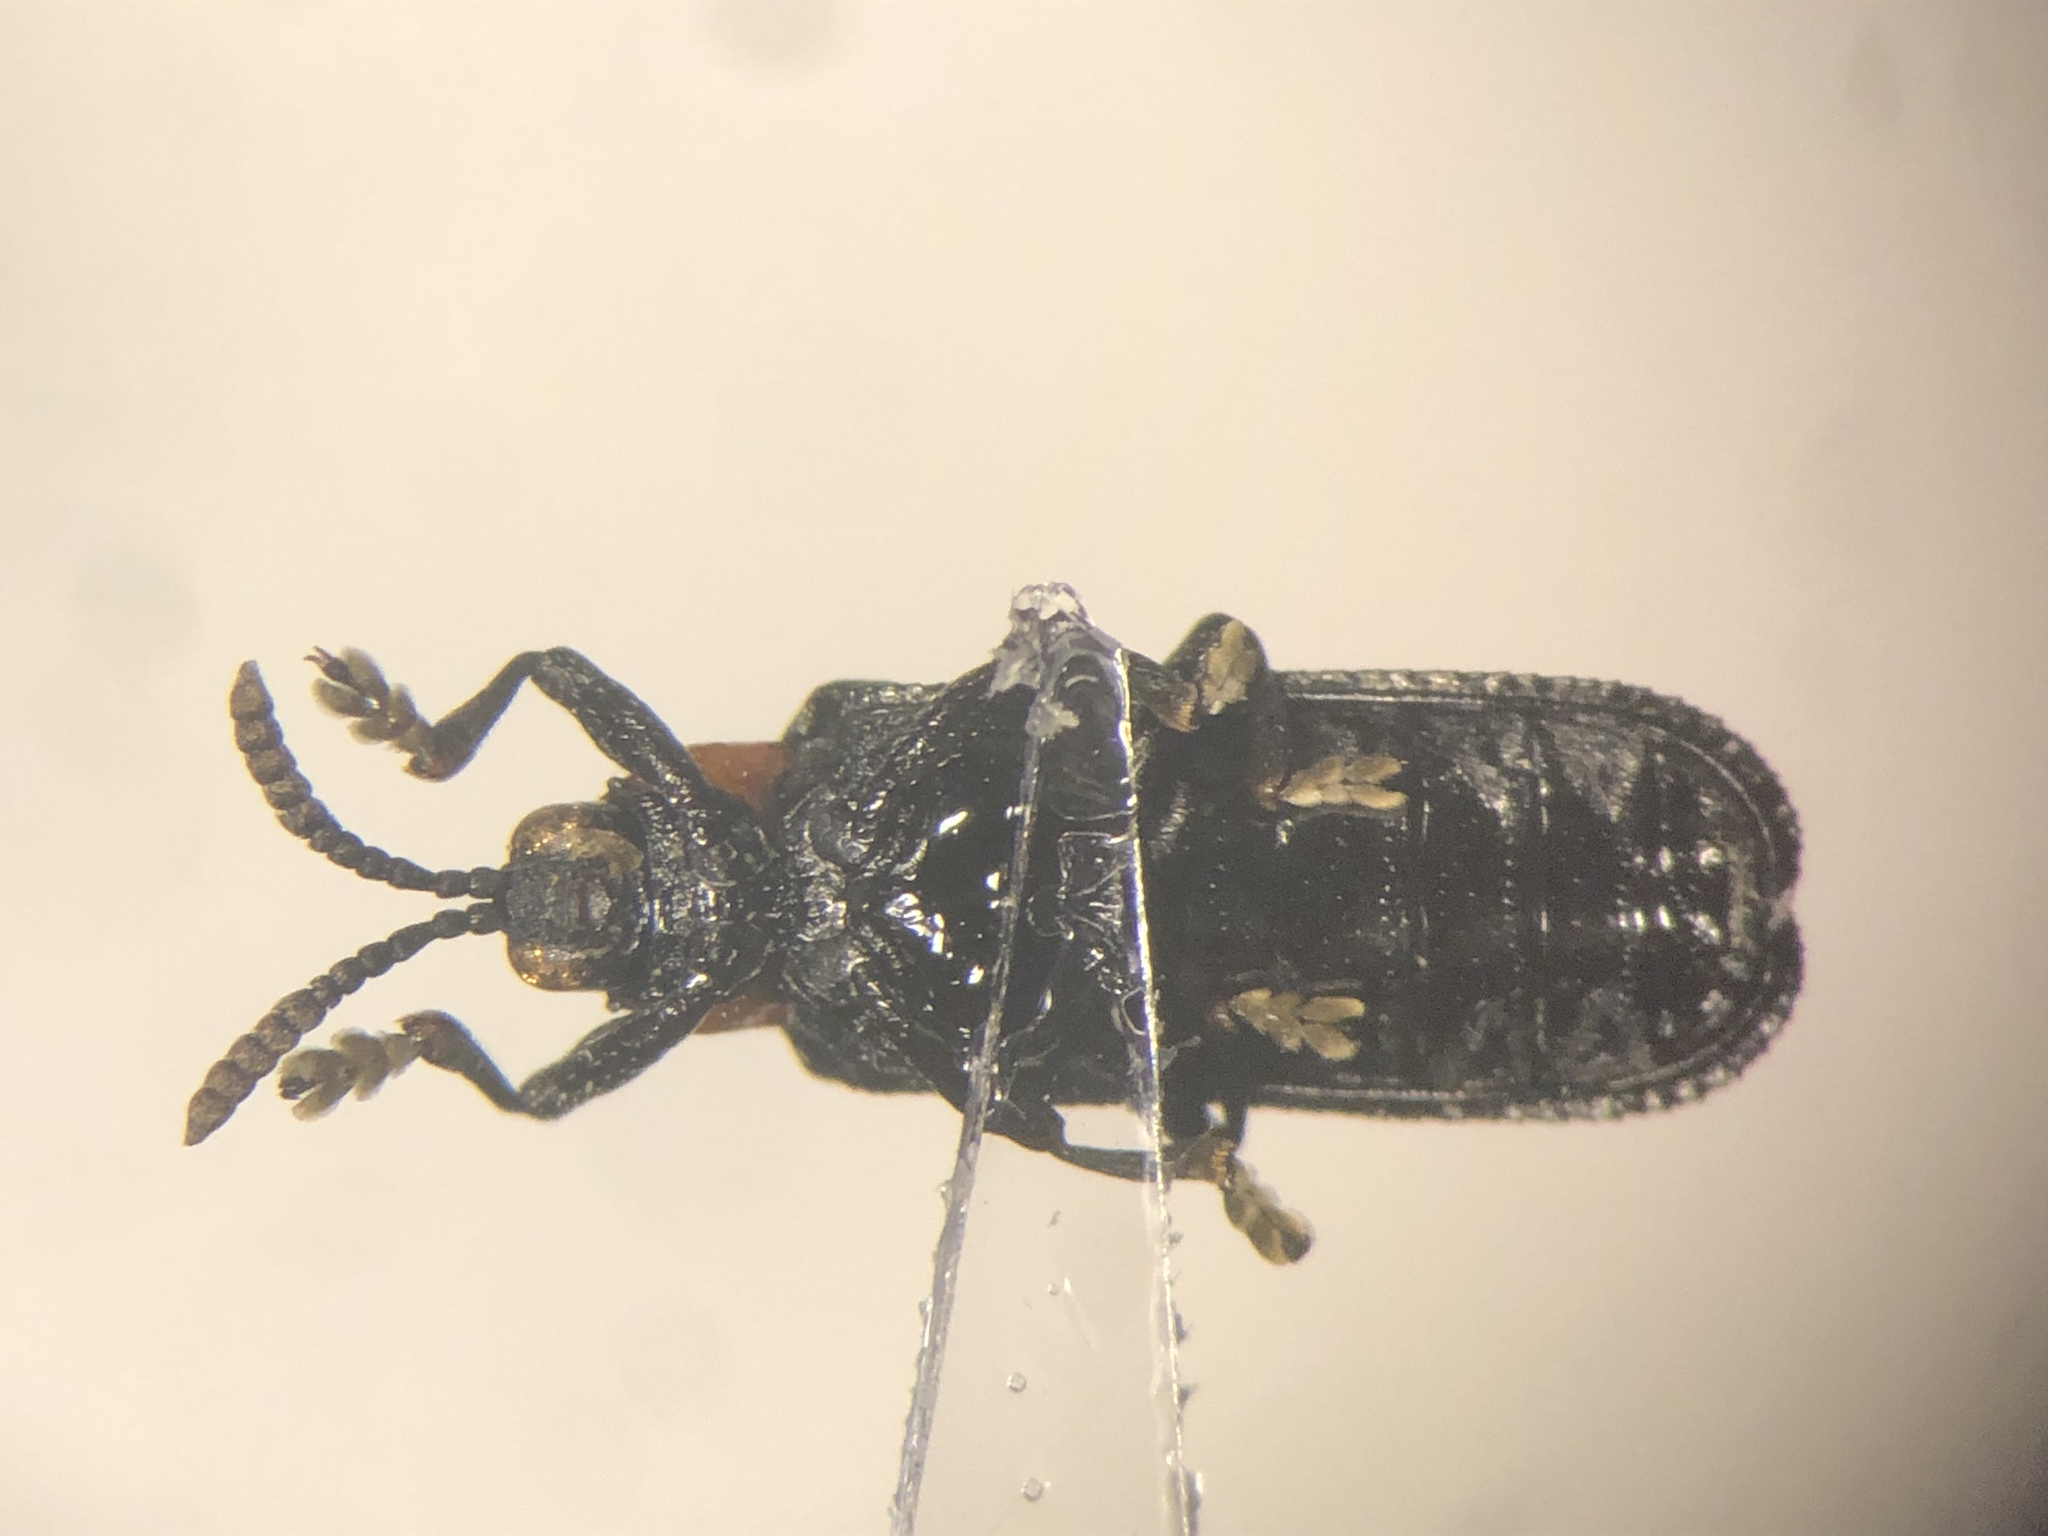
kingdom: Animalia
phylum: Arthropoda
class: Insecta
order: Coleoptera
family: Chrysomelidae
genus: Chalepus
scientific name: Chalepus walshii
